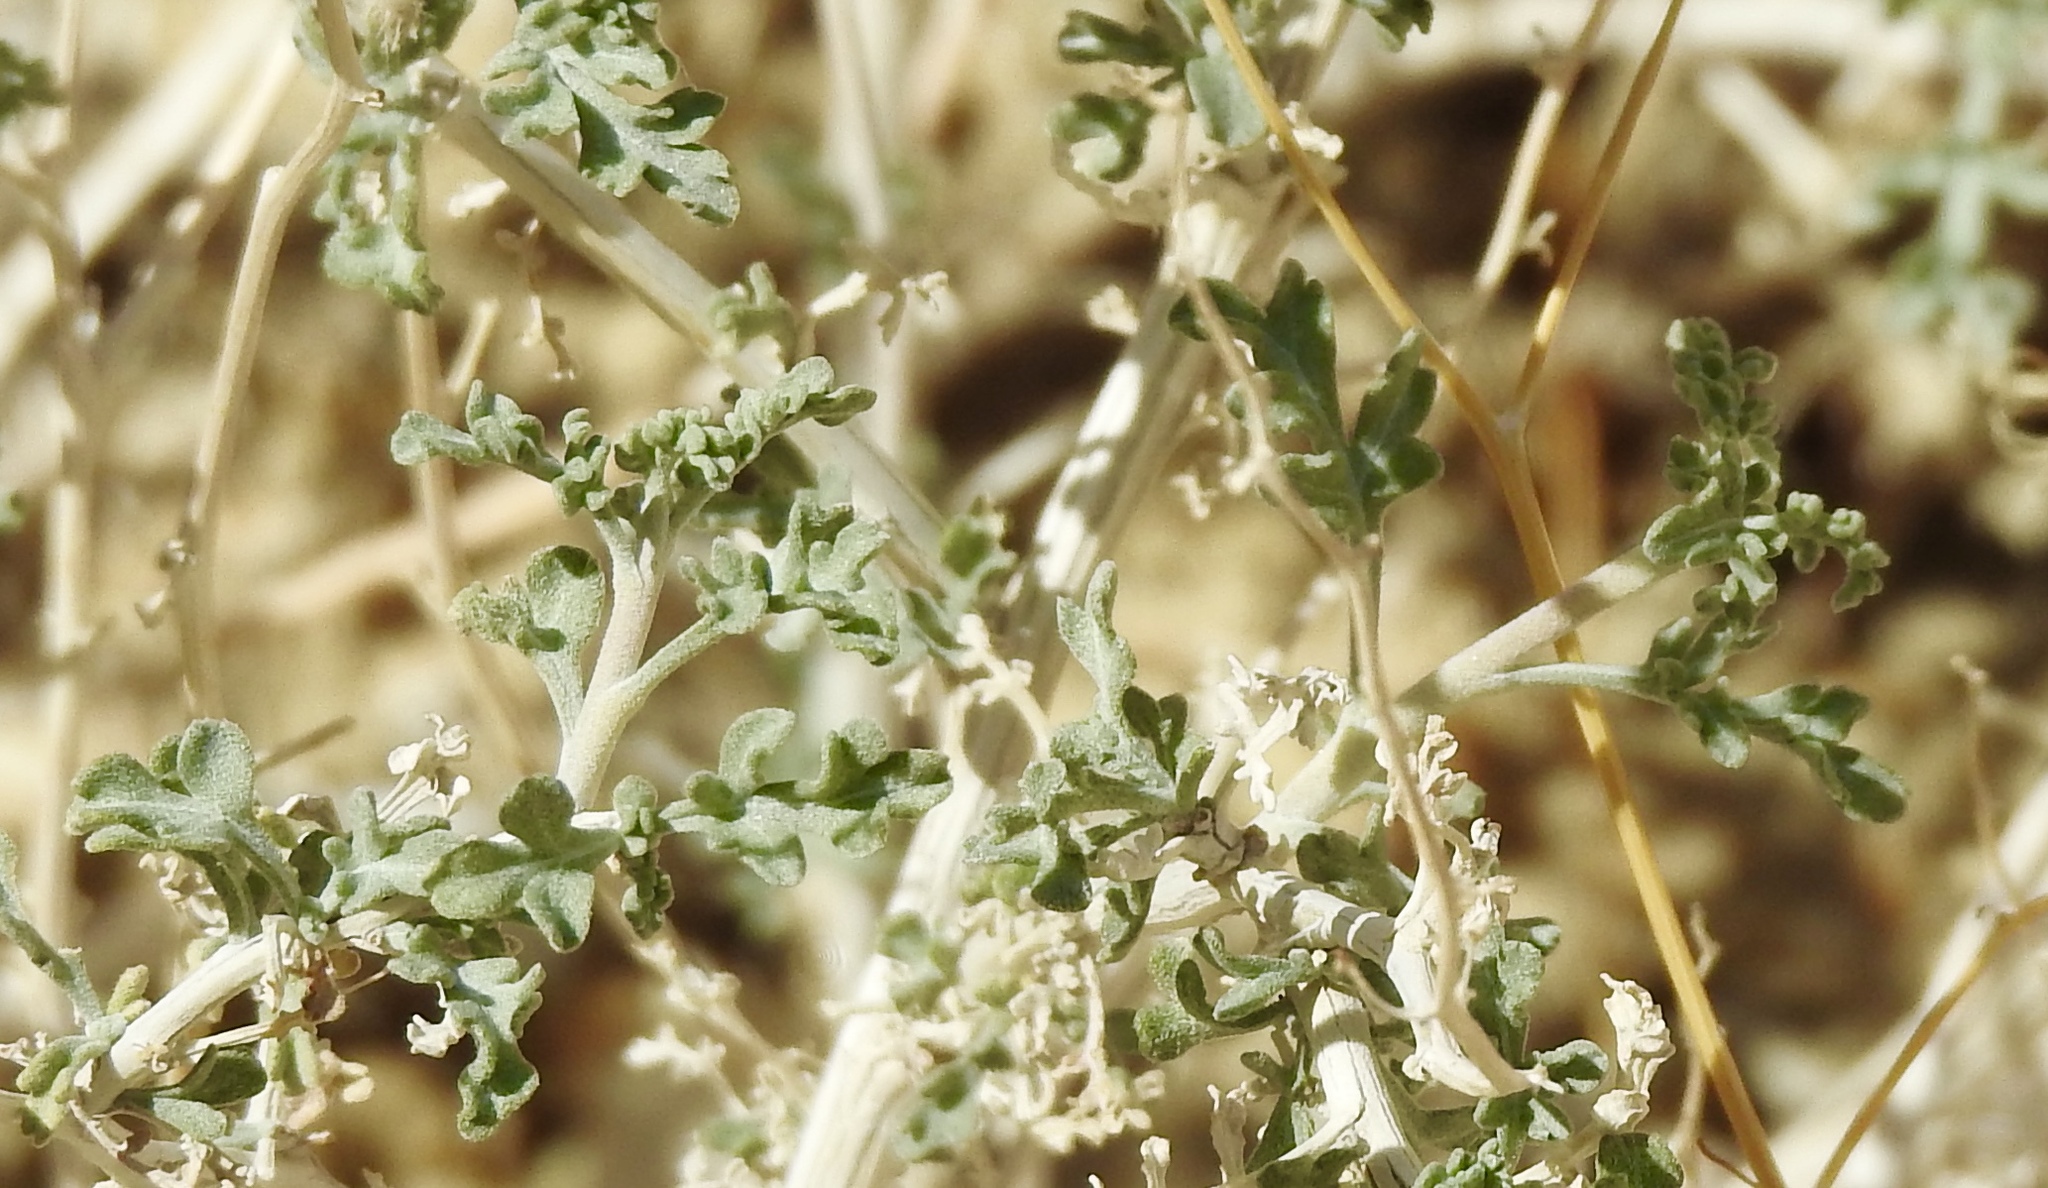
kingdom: Plantae
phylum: Tracheophyta
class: Magnoliopsida
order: Asterales
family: Asteraceae
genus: Ambrosia
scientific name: Ambrosia dumosa
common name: Bur-sage
